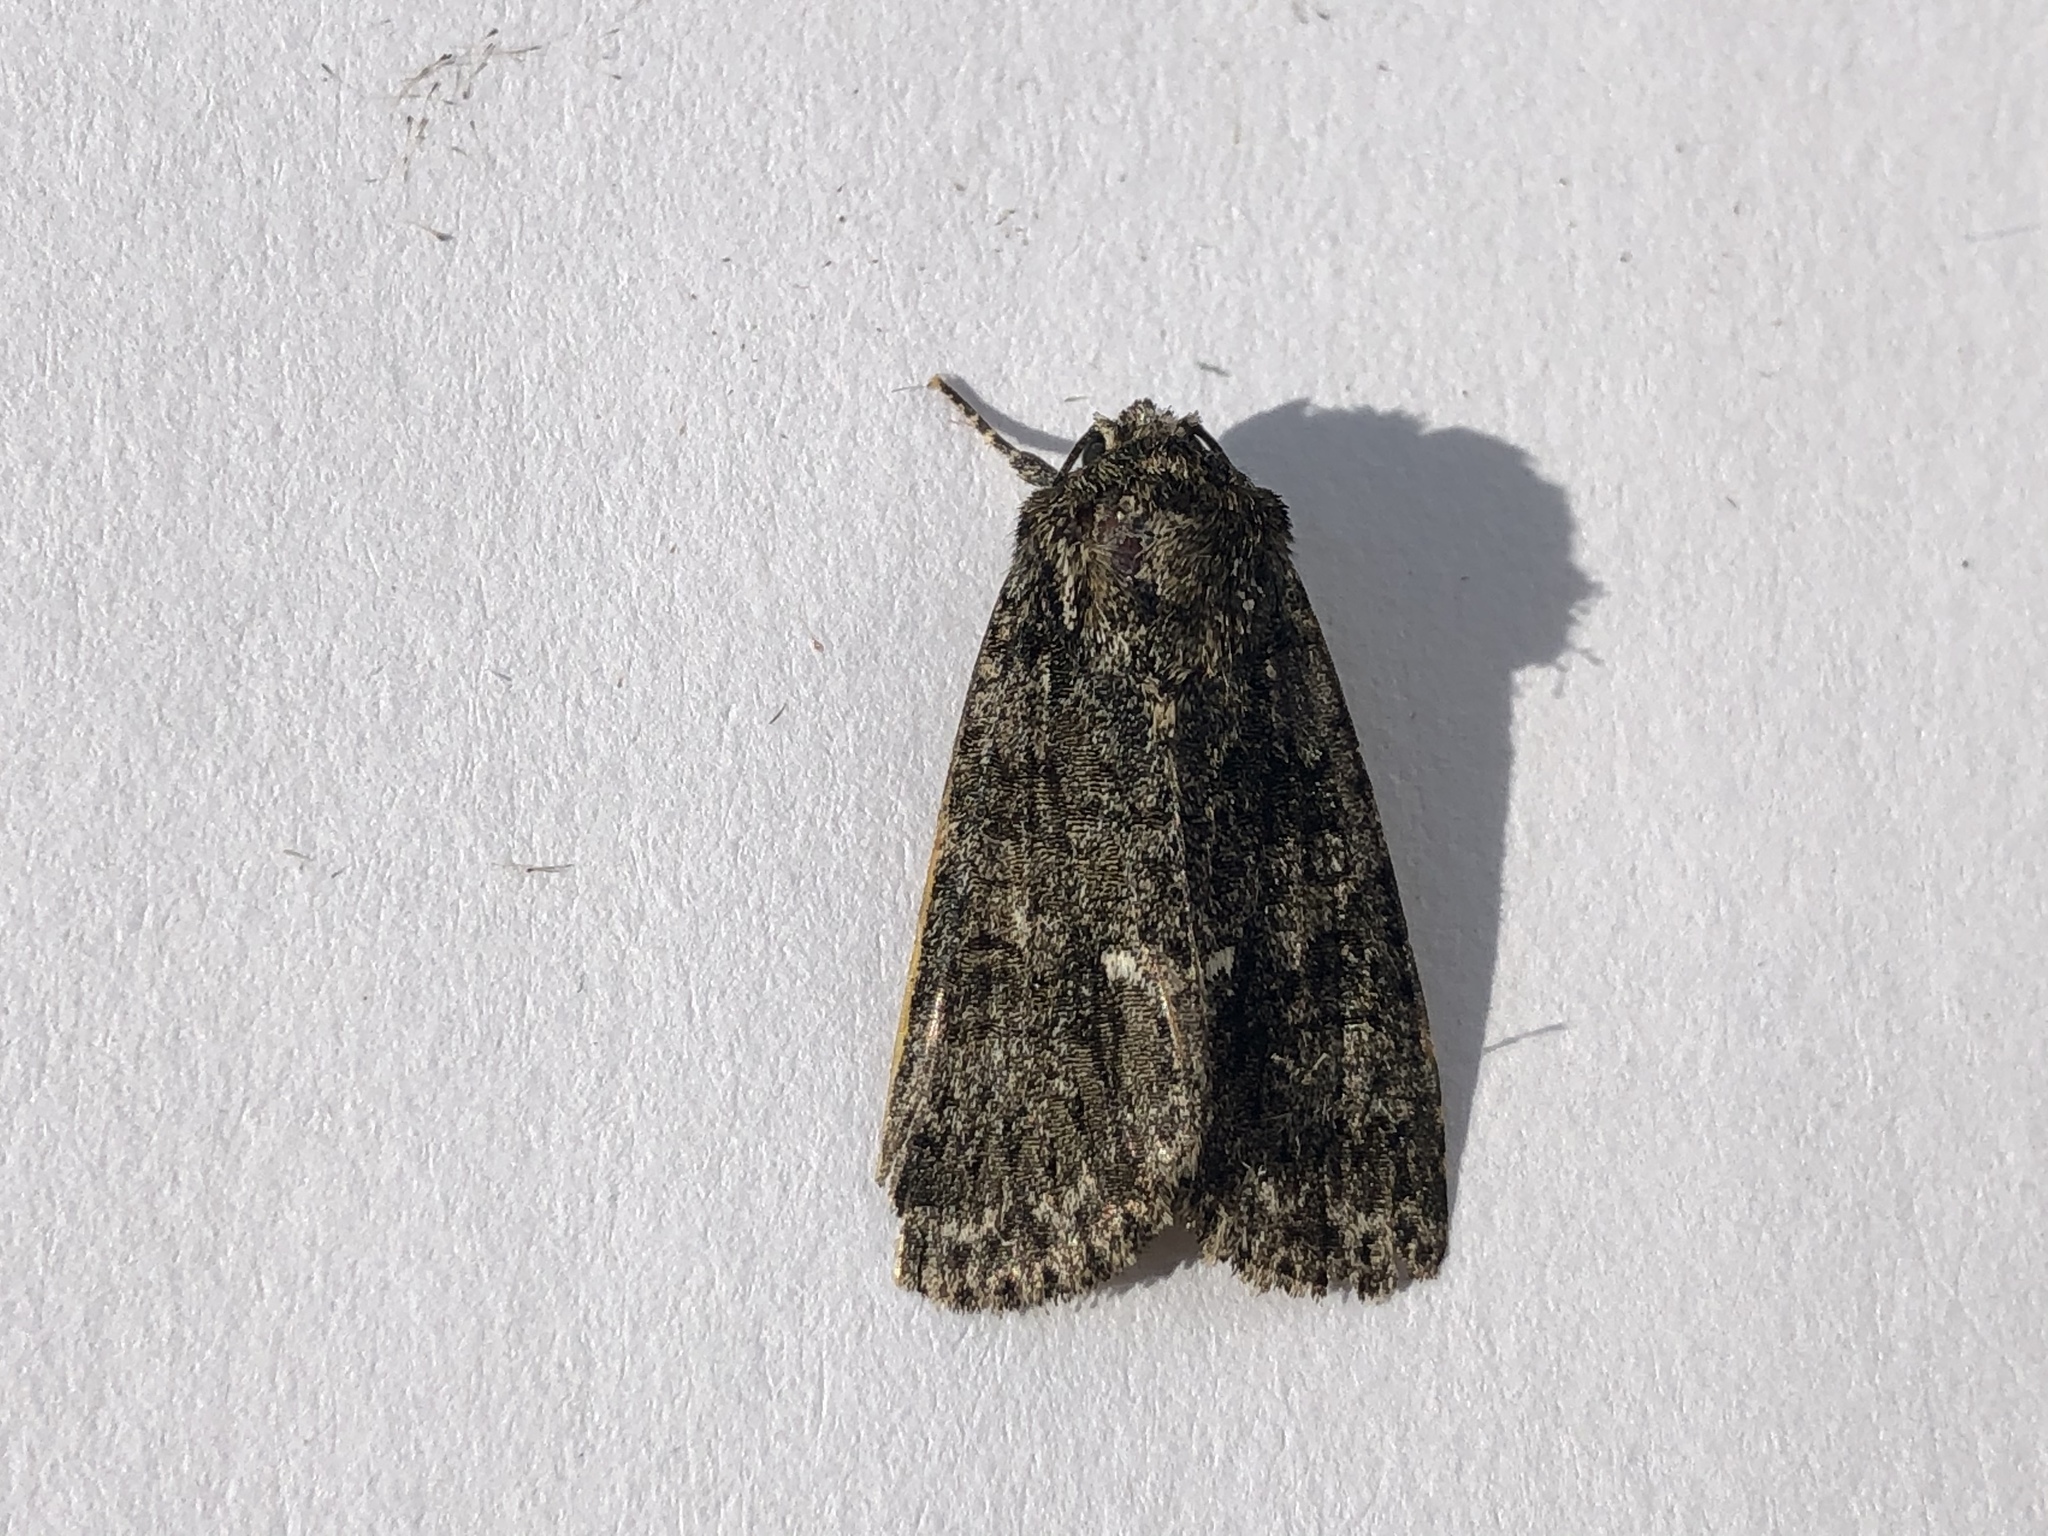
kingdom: Animalia
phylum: Arthropoda
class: Insecta
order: Lepidoptera
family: Noctuidae
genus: Acronicta
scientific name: Acronicta rumicis
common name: Knot grass
